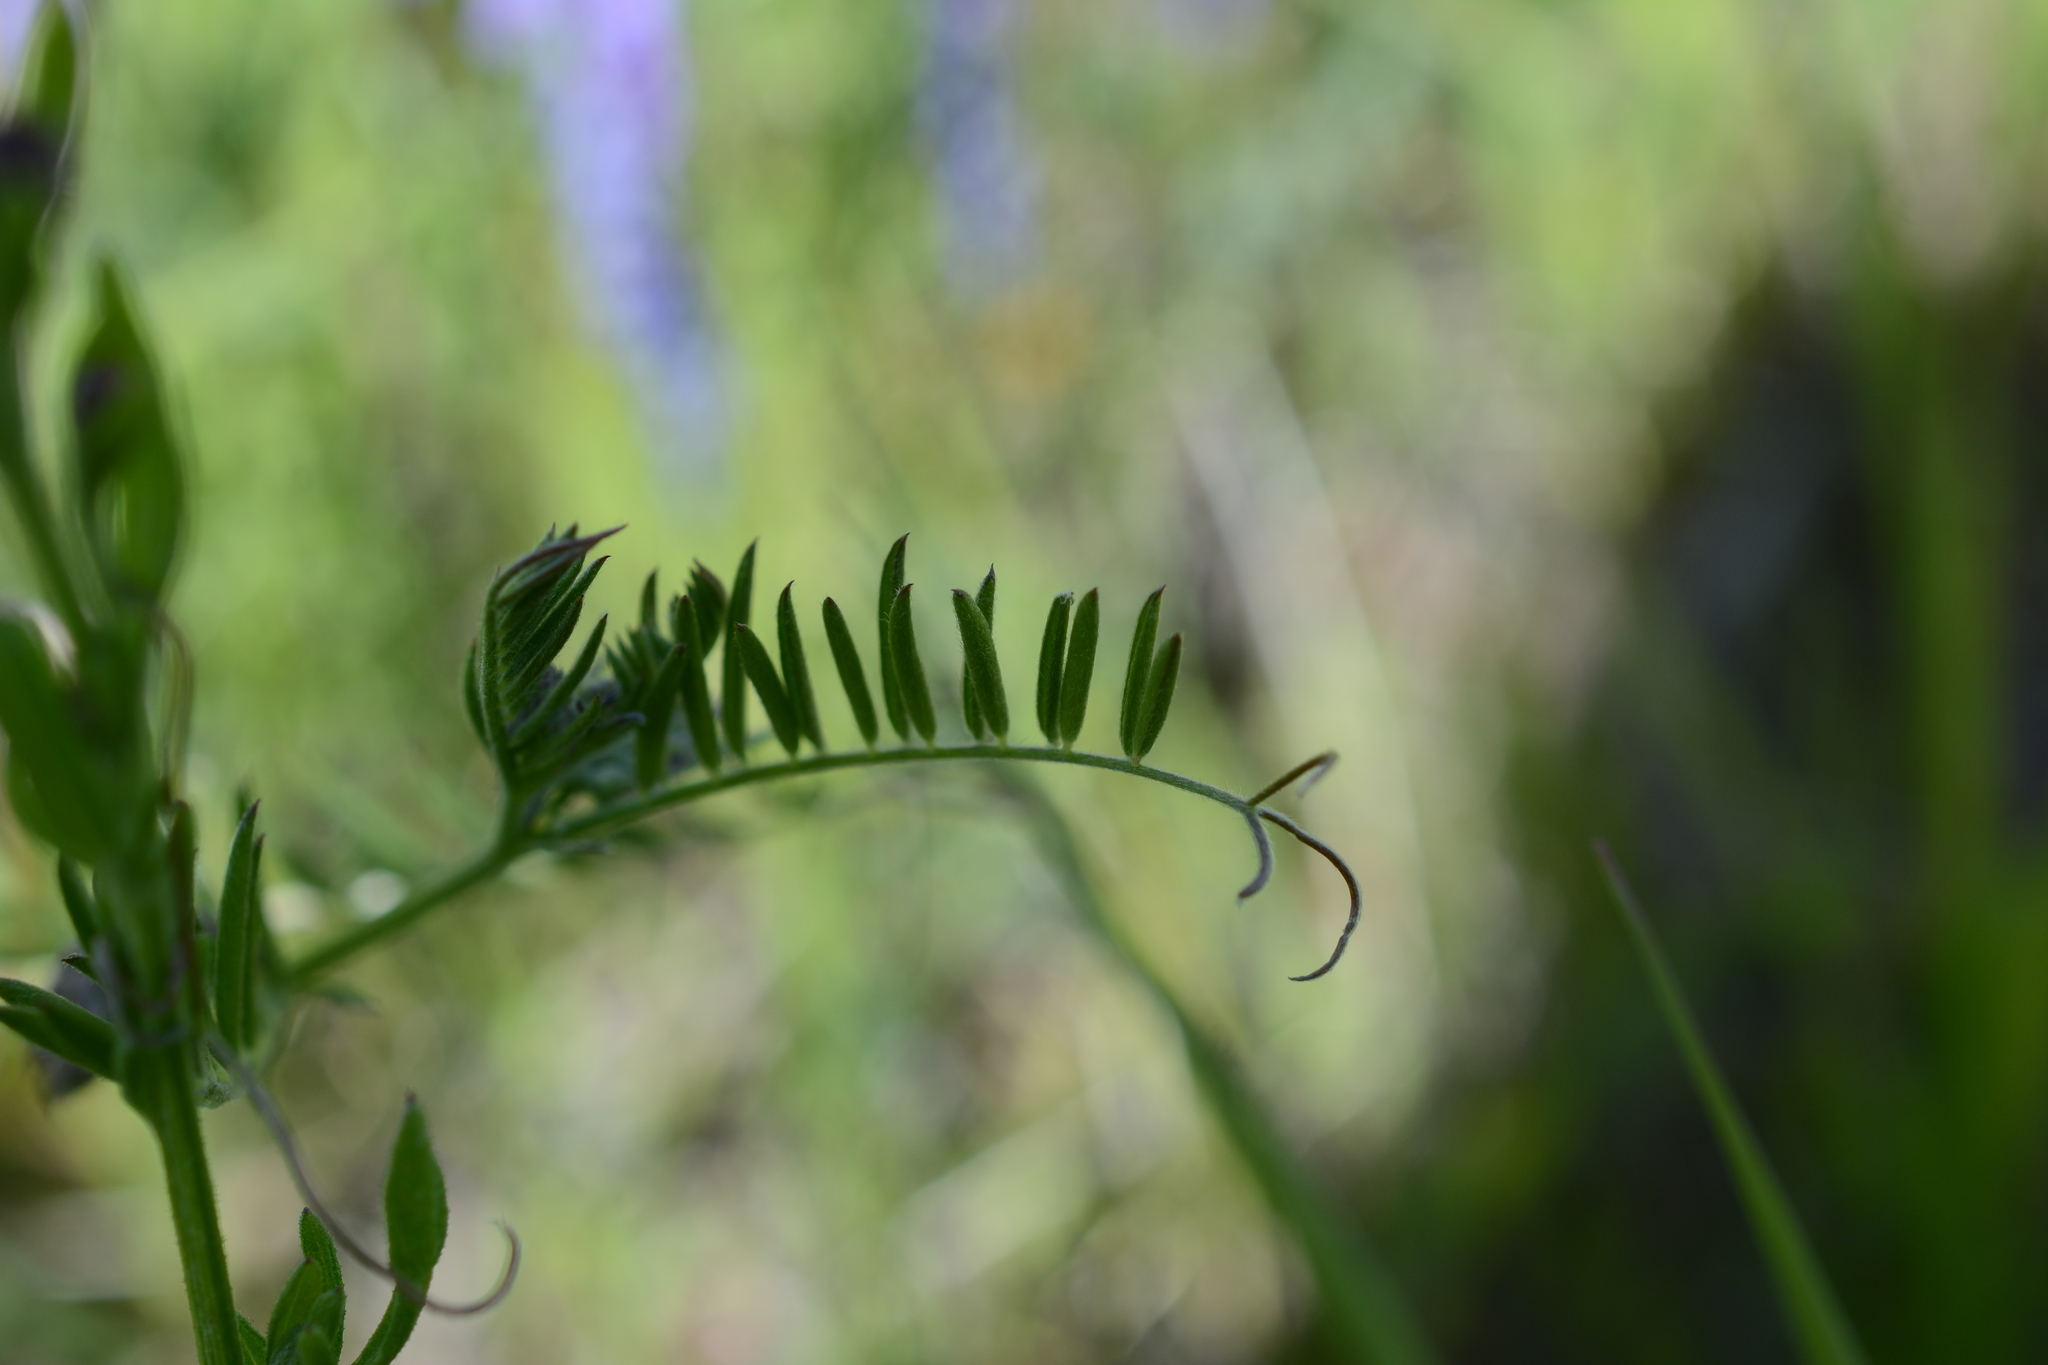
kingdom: Plantae
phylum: Tracheophyta
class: Magnoliopsida
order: Fabales
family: Fabaceae
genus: Vicia
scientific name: Vicia cracca
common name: Bird vetch
